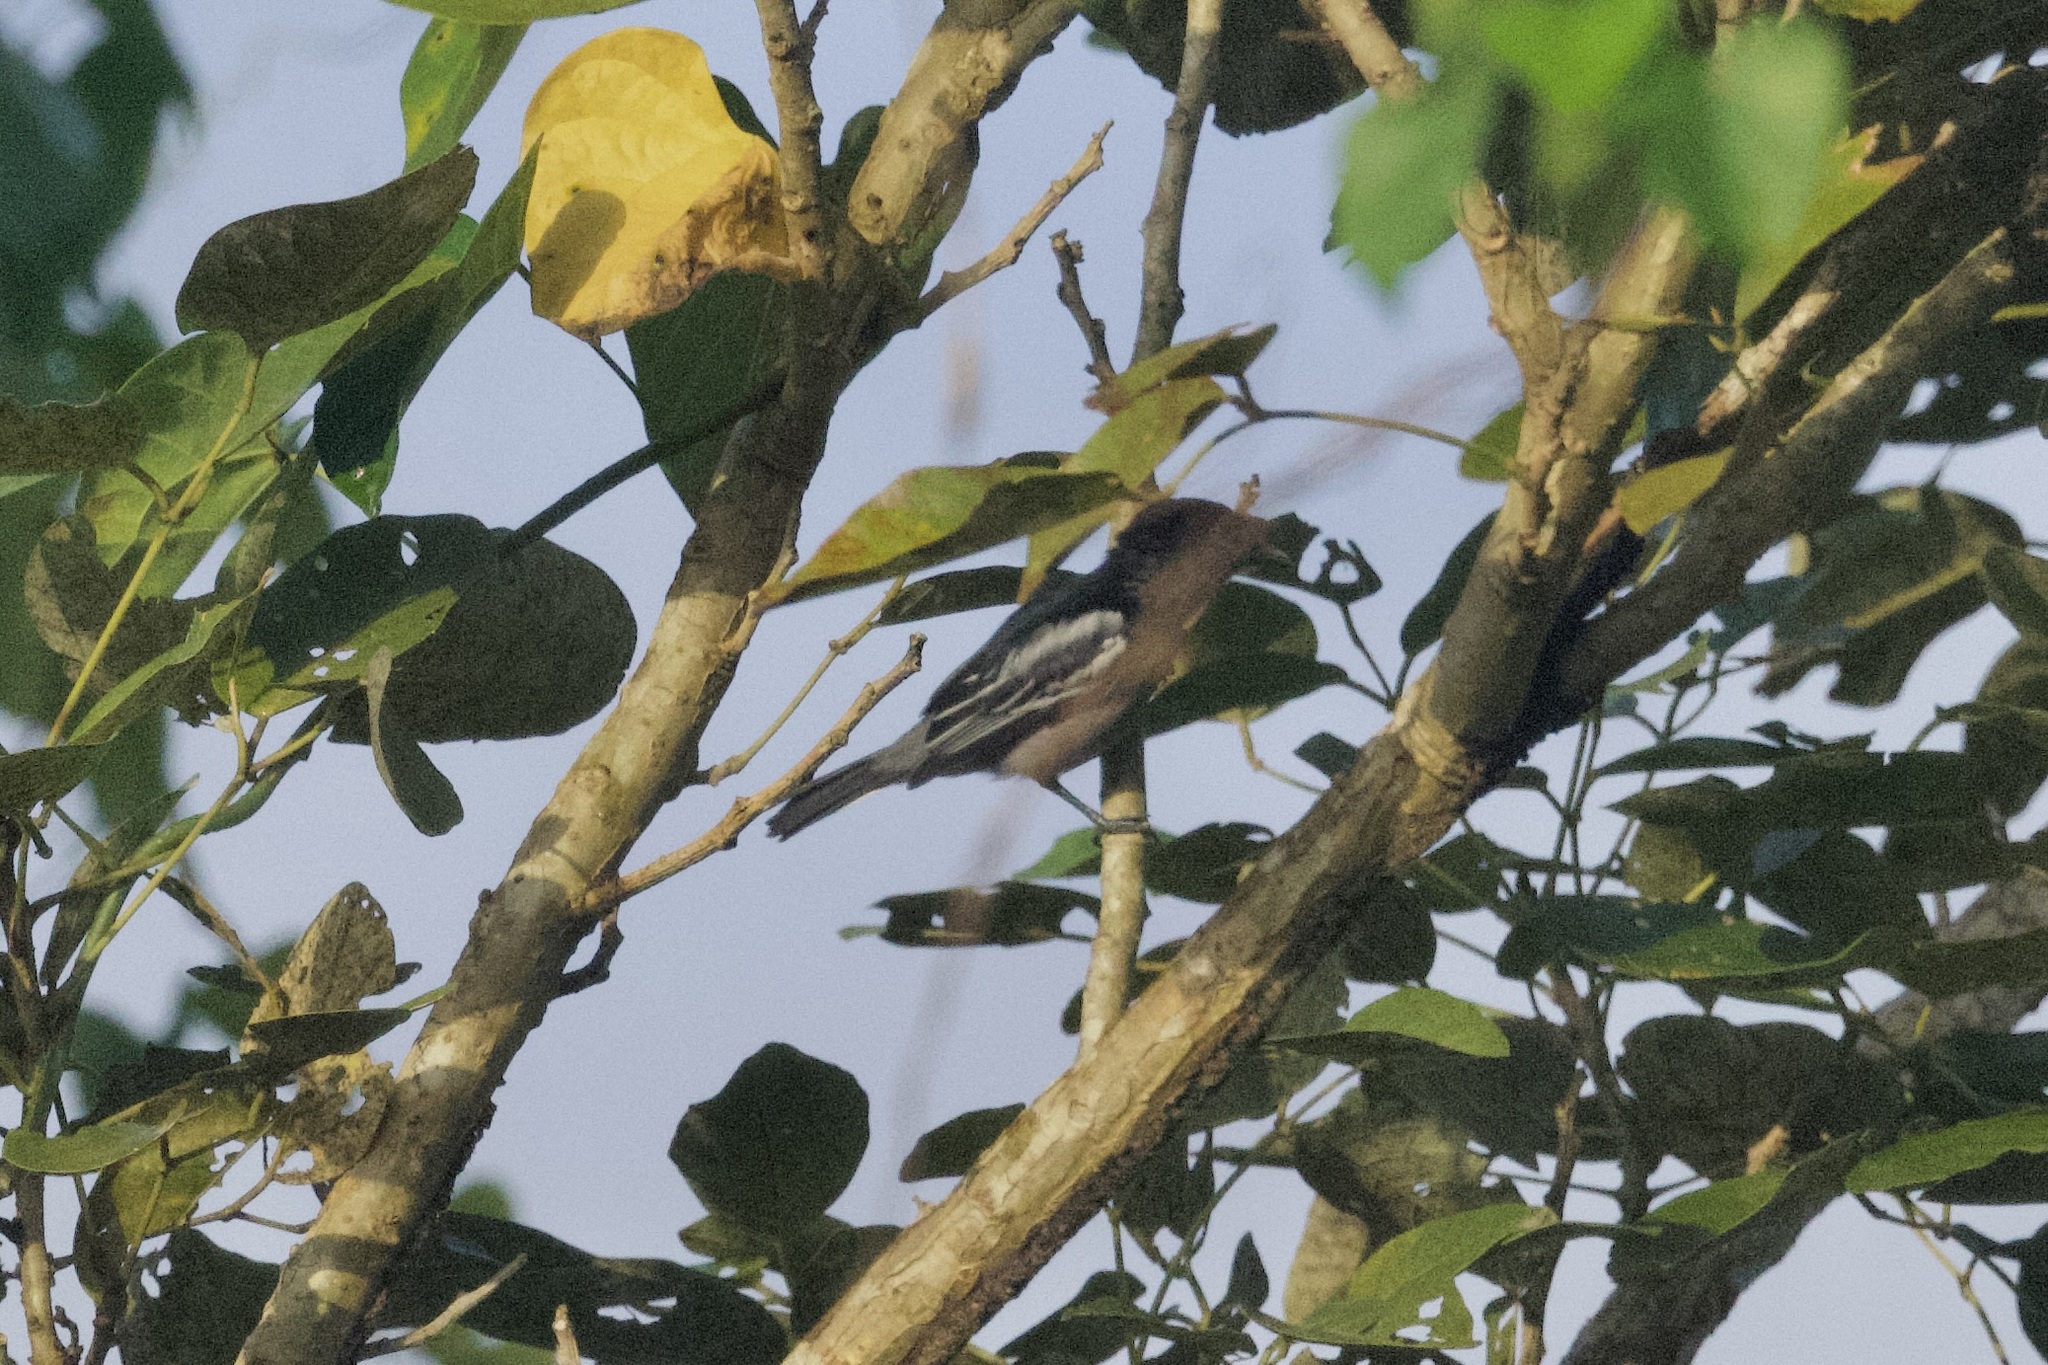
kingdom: Animalia
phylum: Chordata
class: Aves
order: Passeriformes
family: Cotingidae
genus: Pachyramphus
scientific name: Pachyramphus polychopterus
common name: White-winged becard
